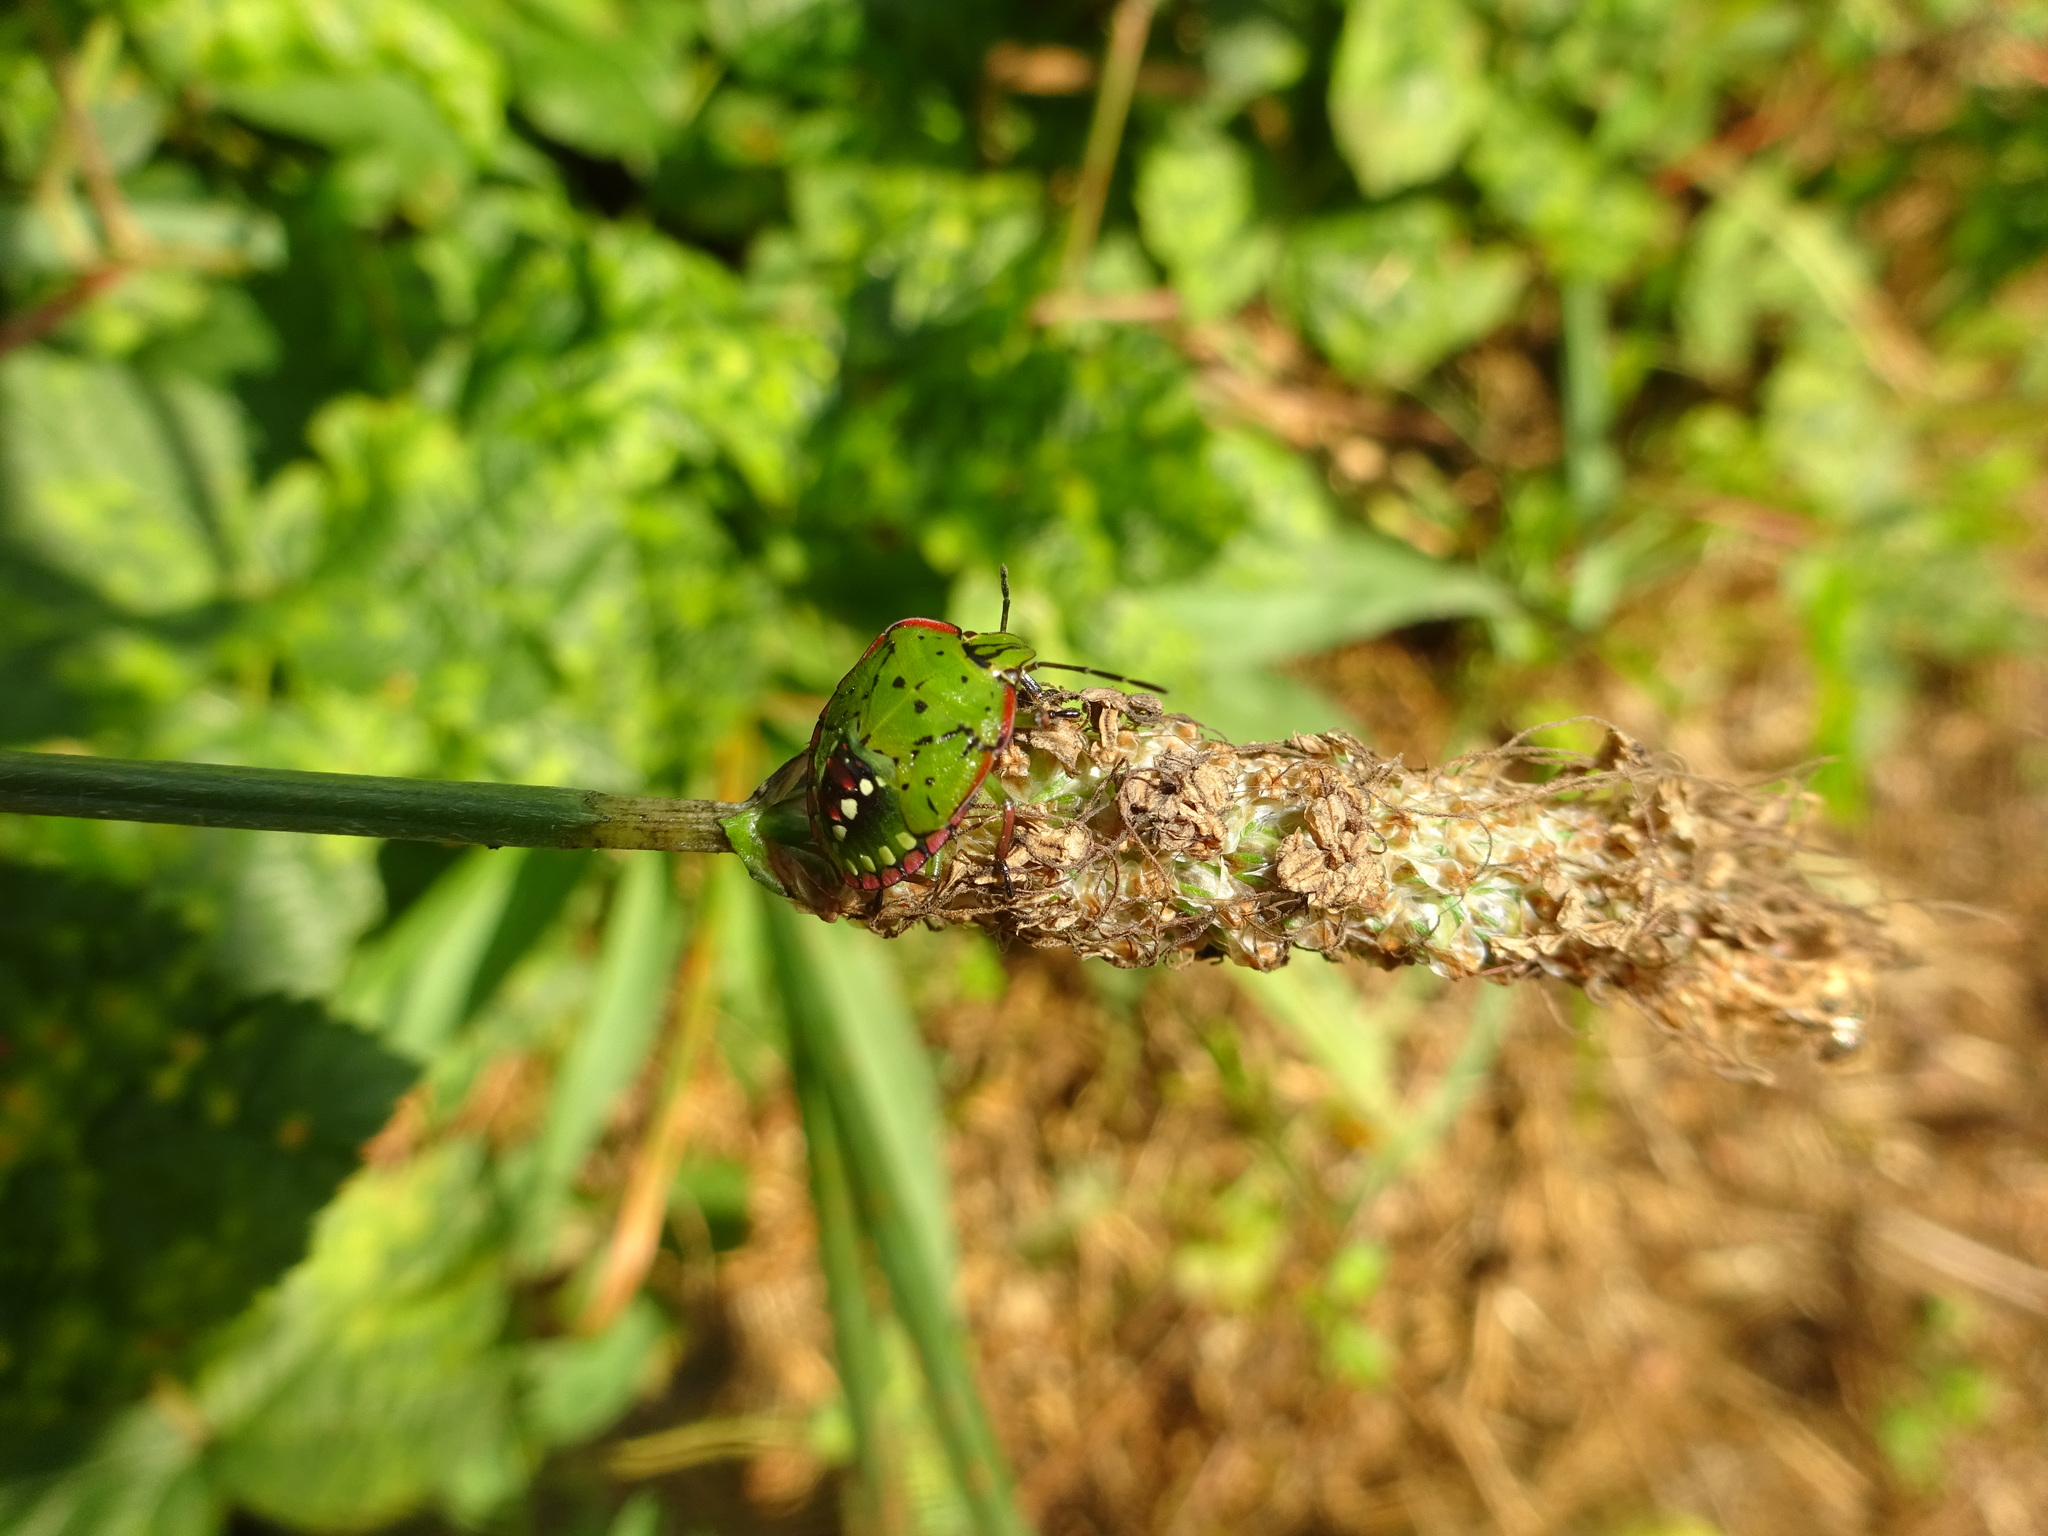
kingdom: Animalia
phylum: Arthropoda
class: Insecta
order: Hemiptera
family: Pentatomidae
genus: Nezara
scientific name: Nezara viridula
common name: Southern green stink bug
